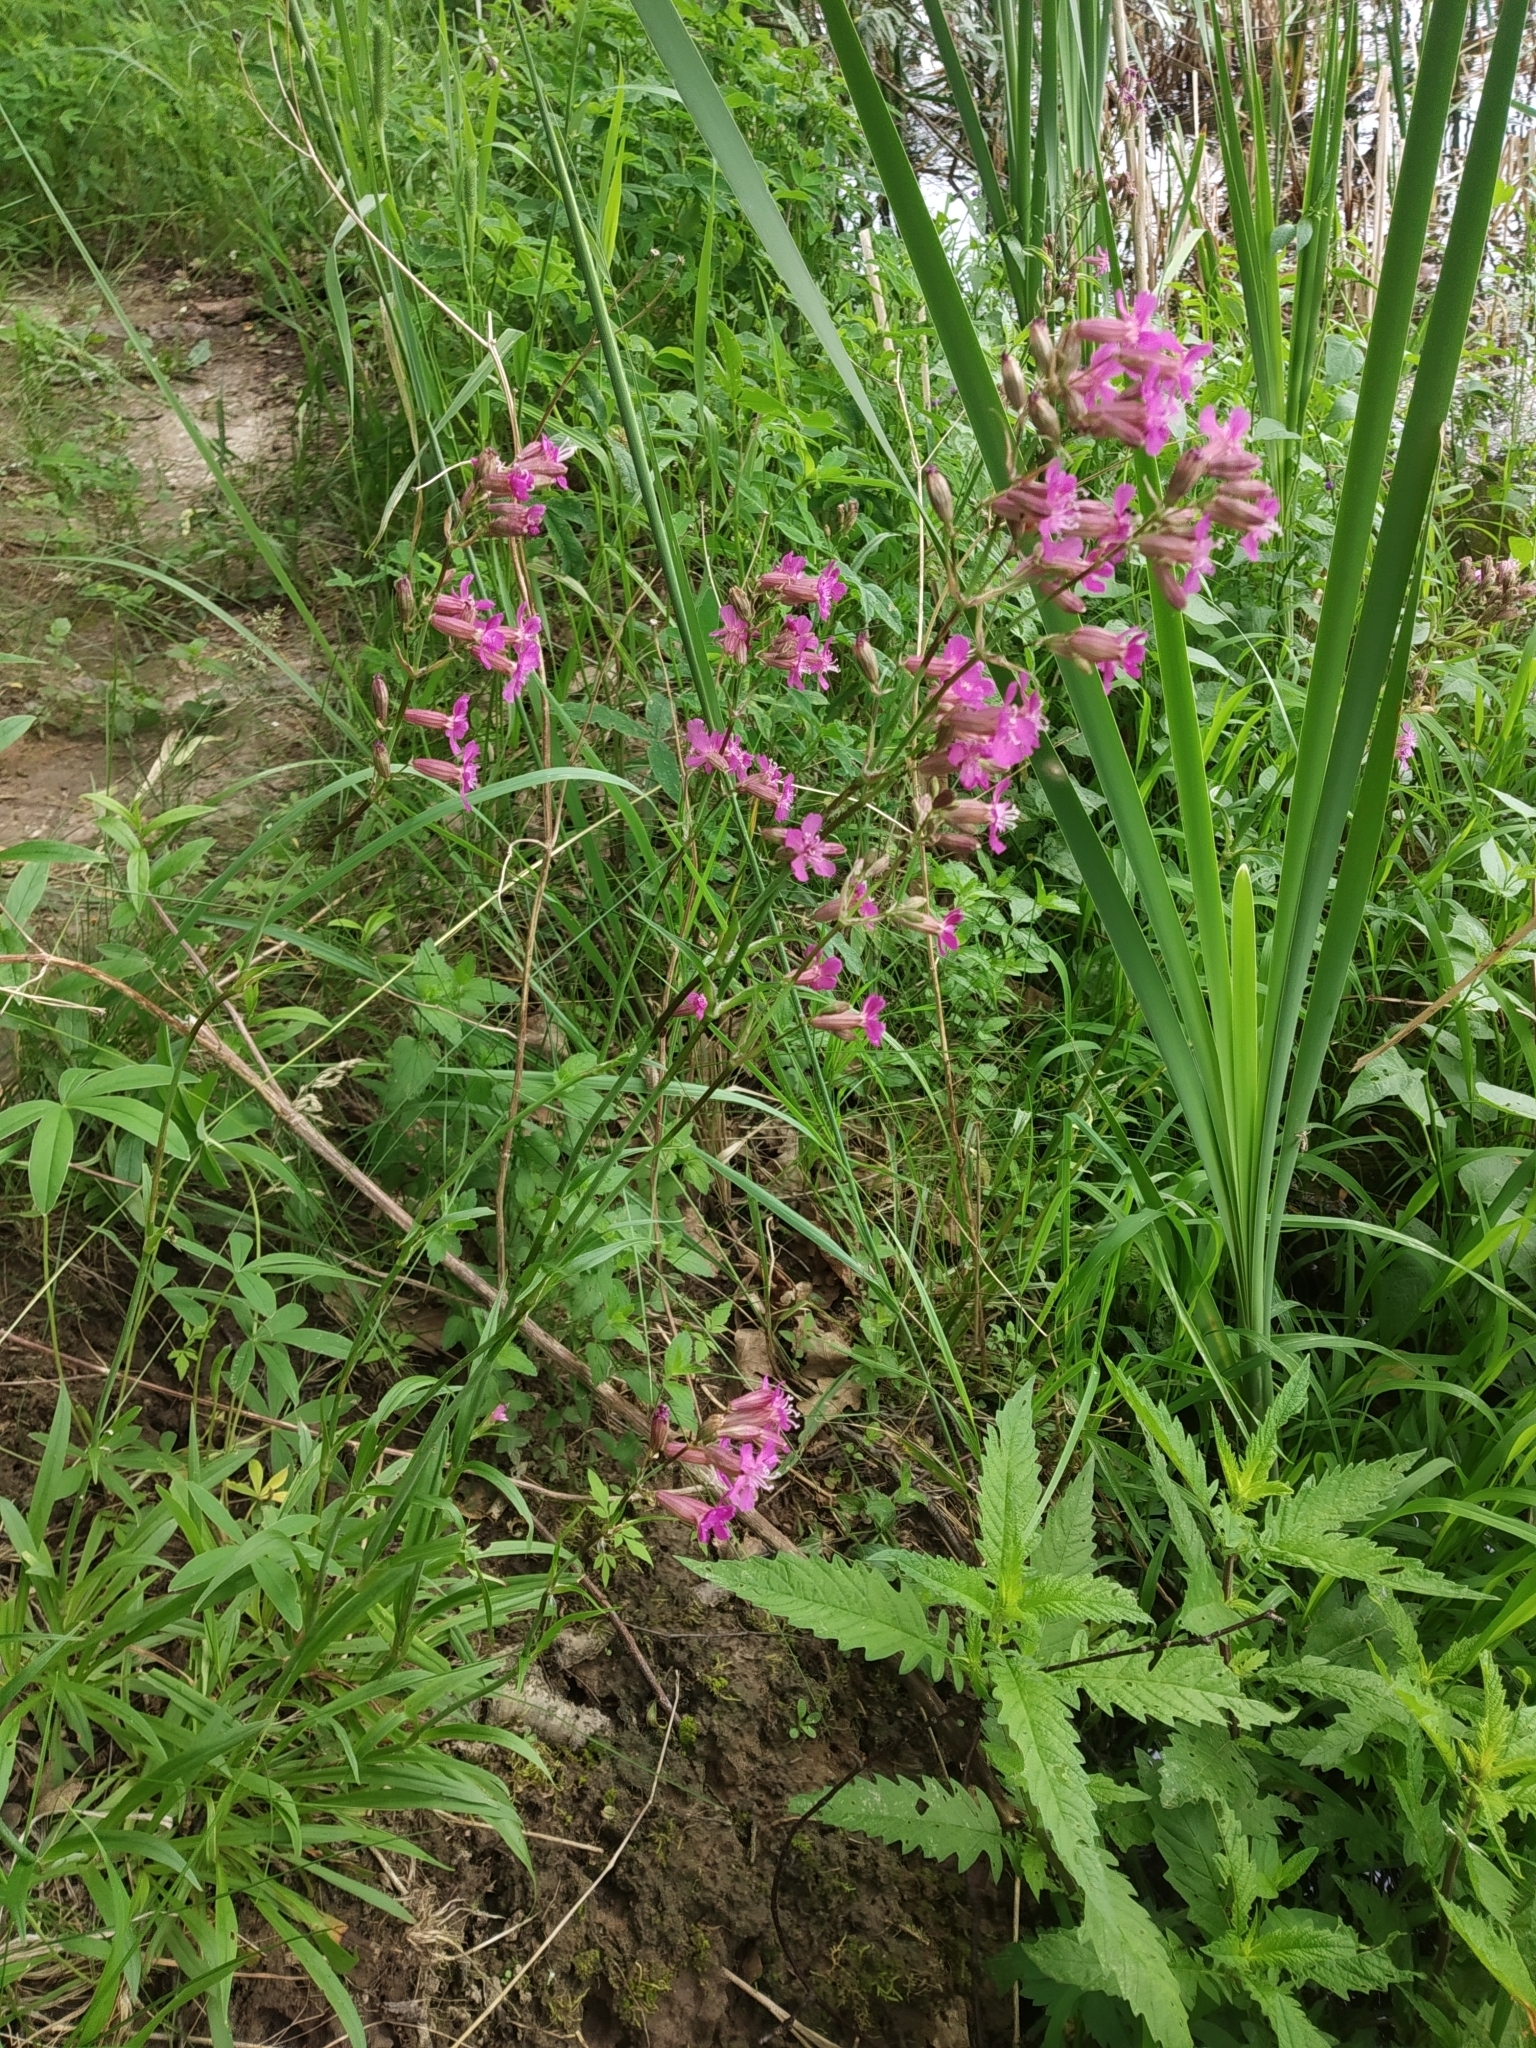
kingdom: Plantae
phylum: Tracheophyta
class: Magnoliopsida
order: Caryophyllales
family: Caryophyllaceae
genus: Viscaria
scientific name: Viscaria vulgaris
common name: Clammy campion
